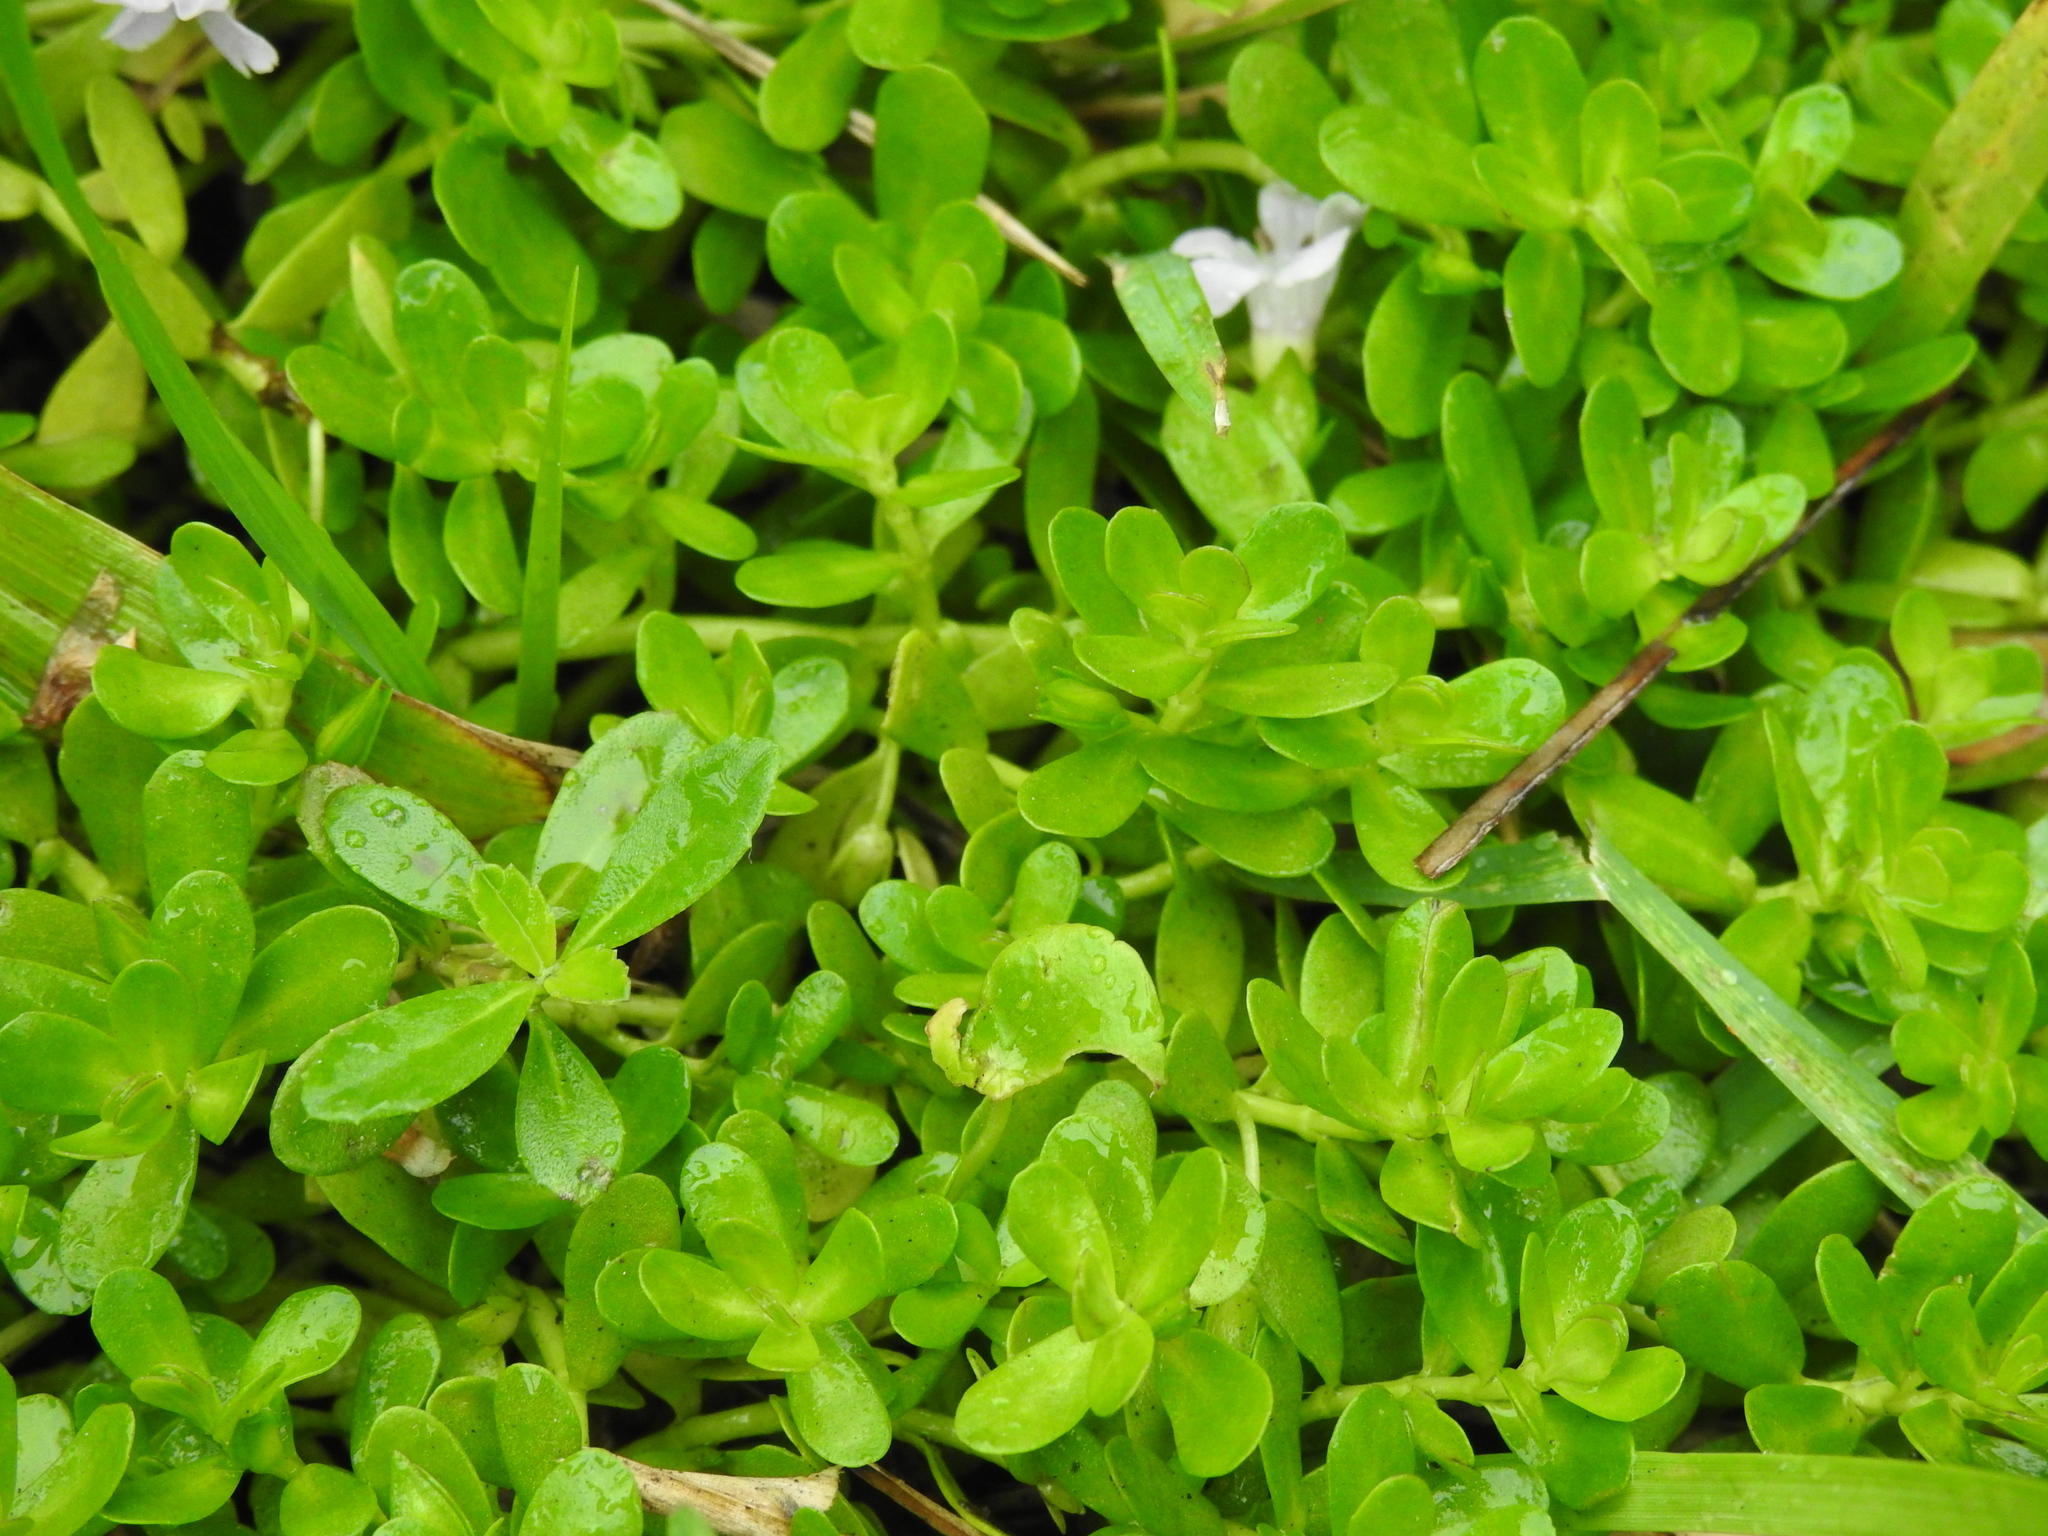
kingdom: Plantae
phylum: Tracheophyta
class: Magnoliopsida
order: Lamiales
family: Plantaginaceae
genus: Bacopa
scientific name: Bacopa monnieri
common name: Indian-pennywort
